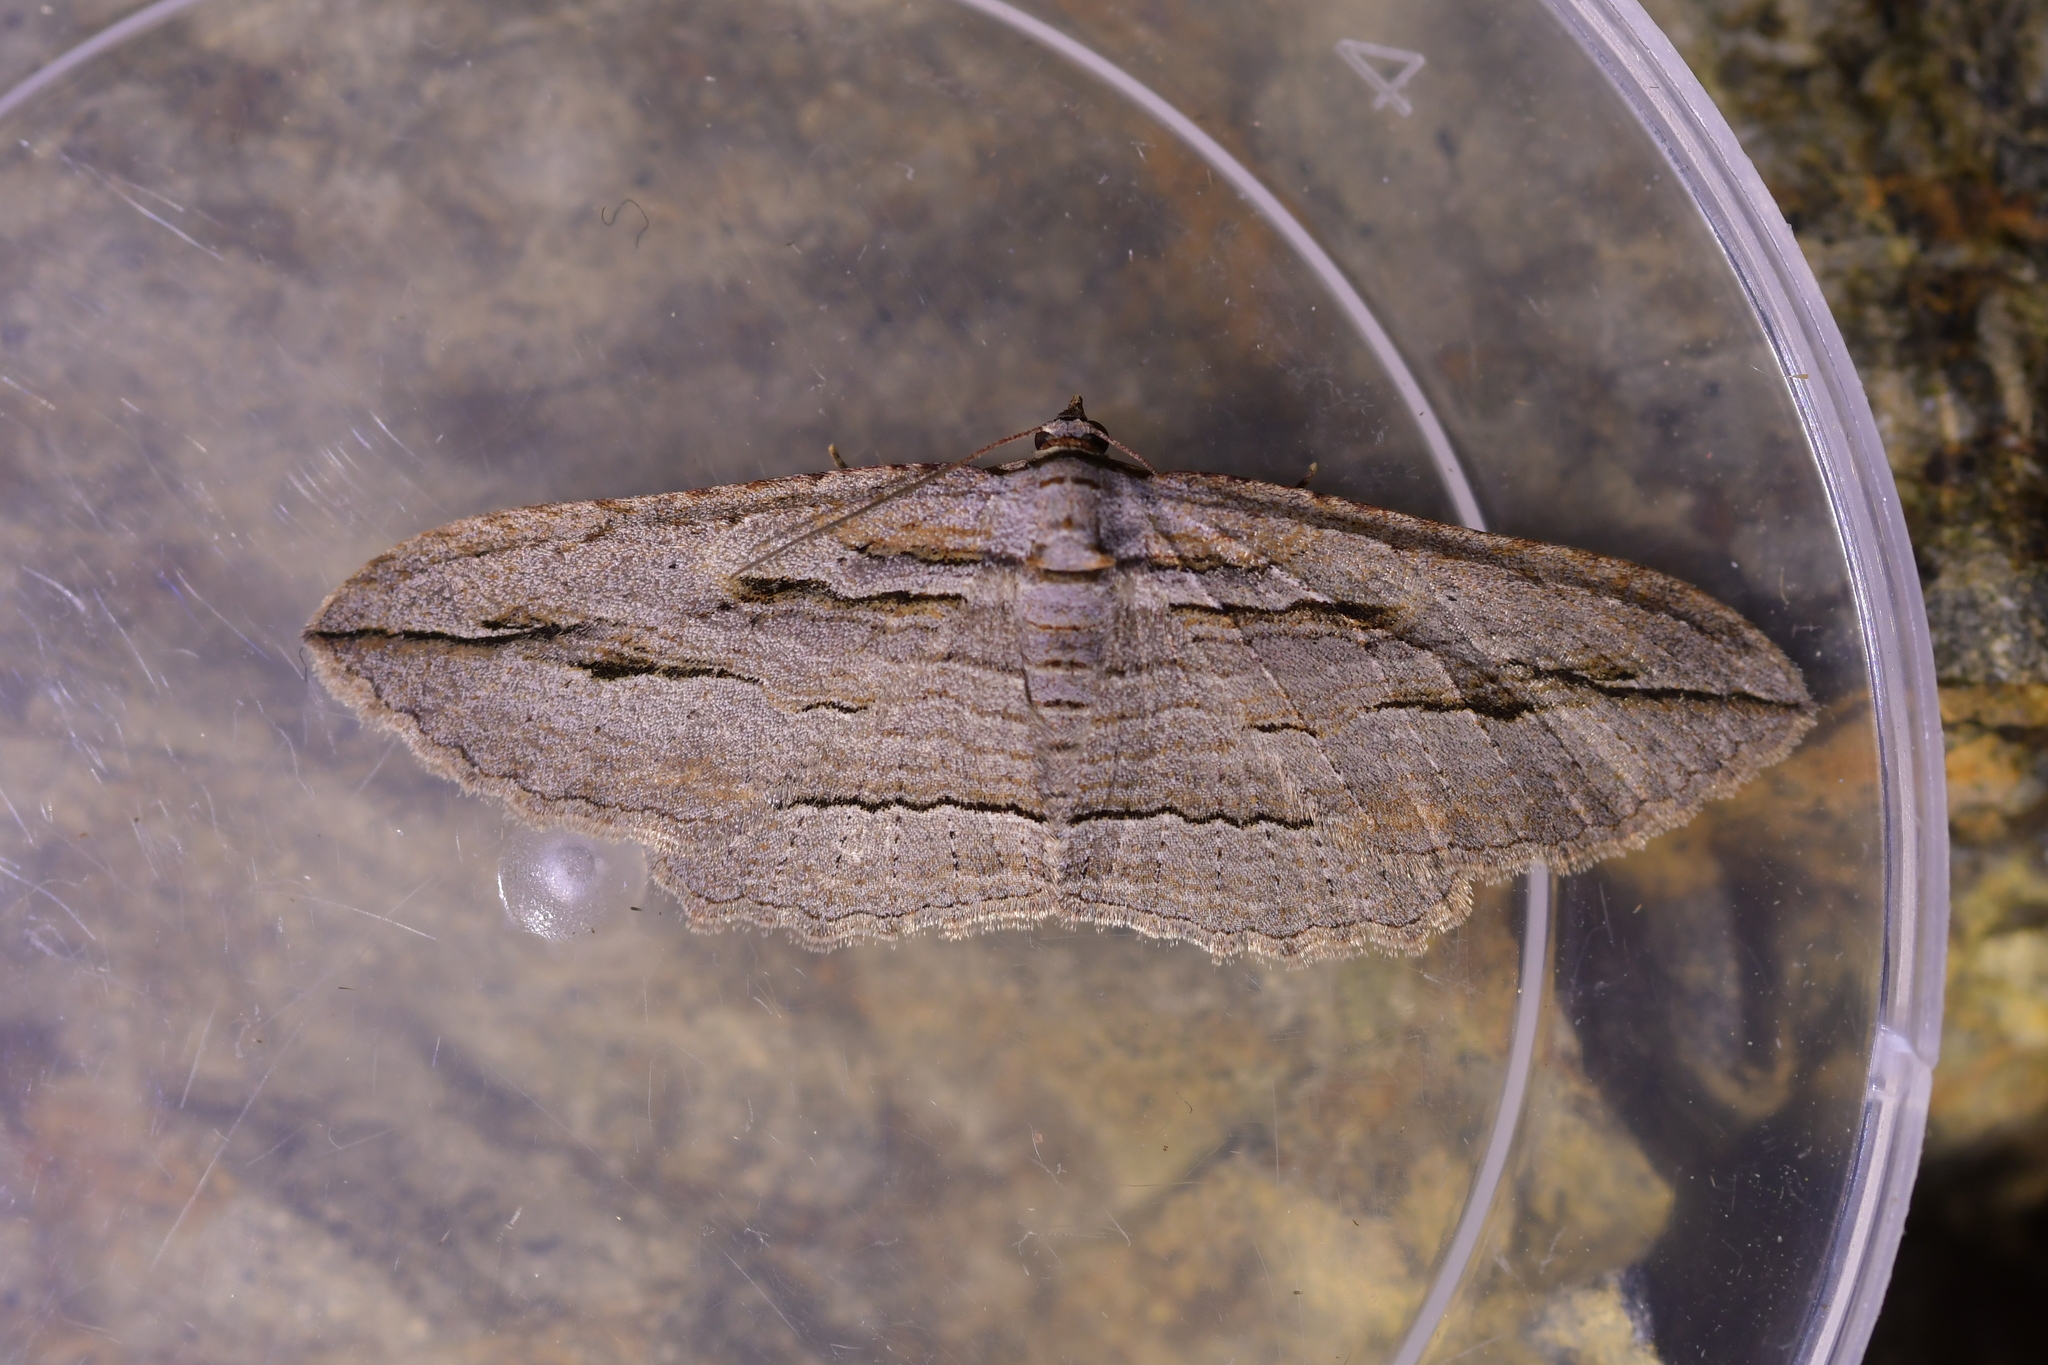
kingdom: Animalia
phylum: Arthropoda
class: Insecta
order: Lepidoptera
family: Geometridae
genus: Austrocidaria
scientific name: Austrocidaria gobiata
